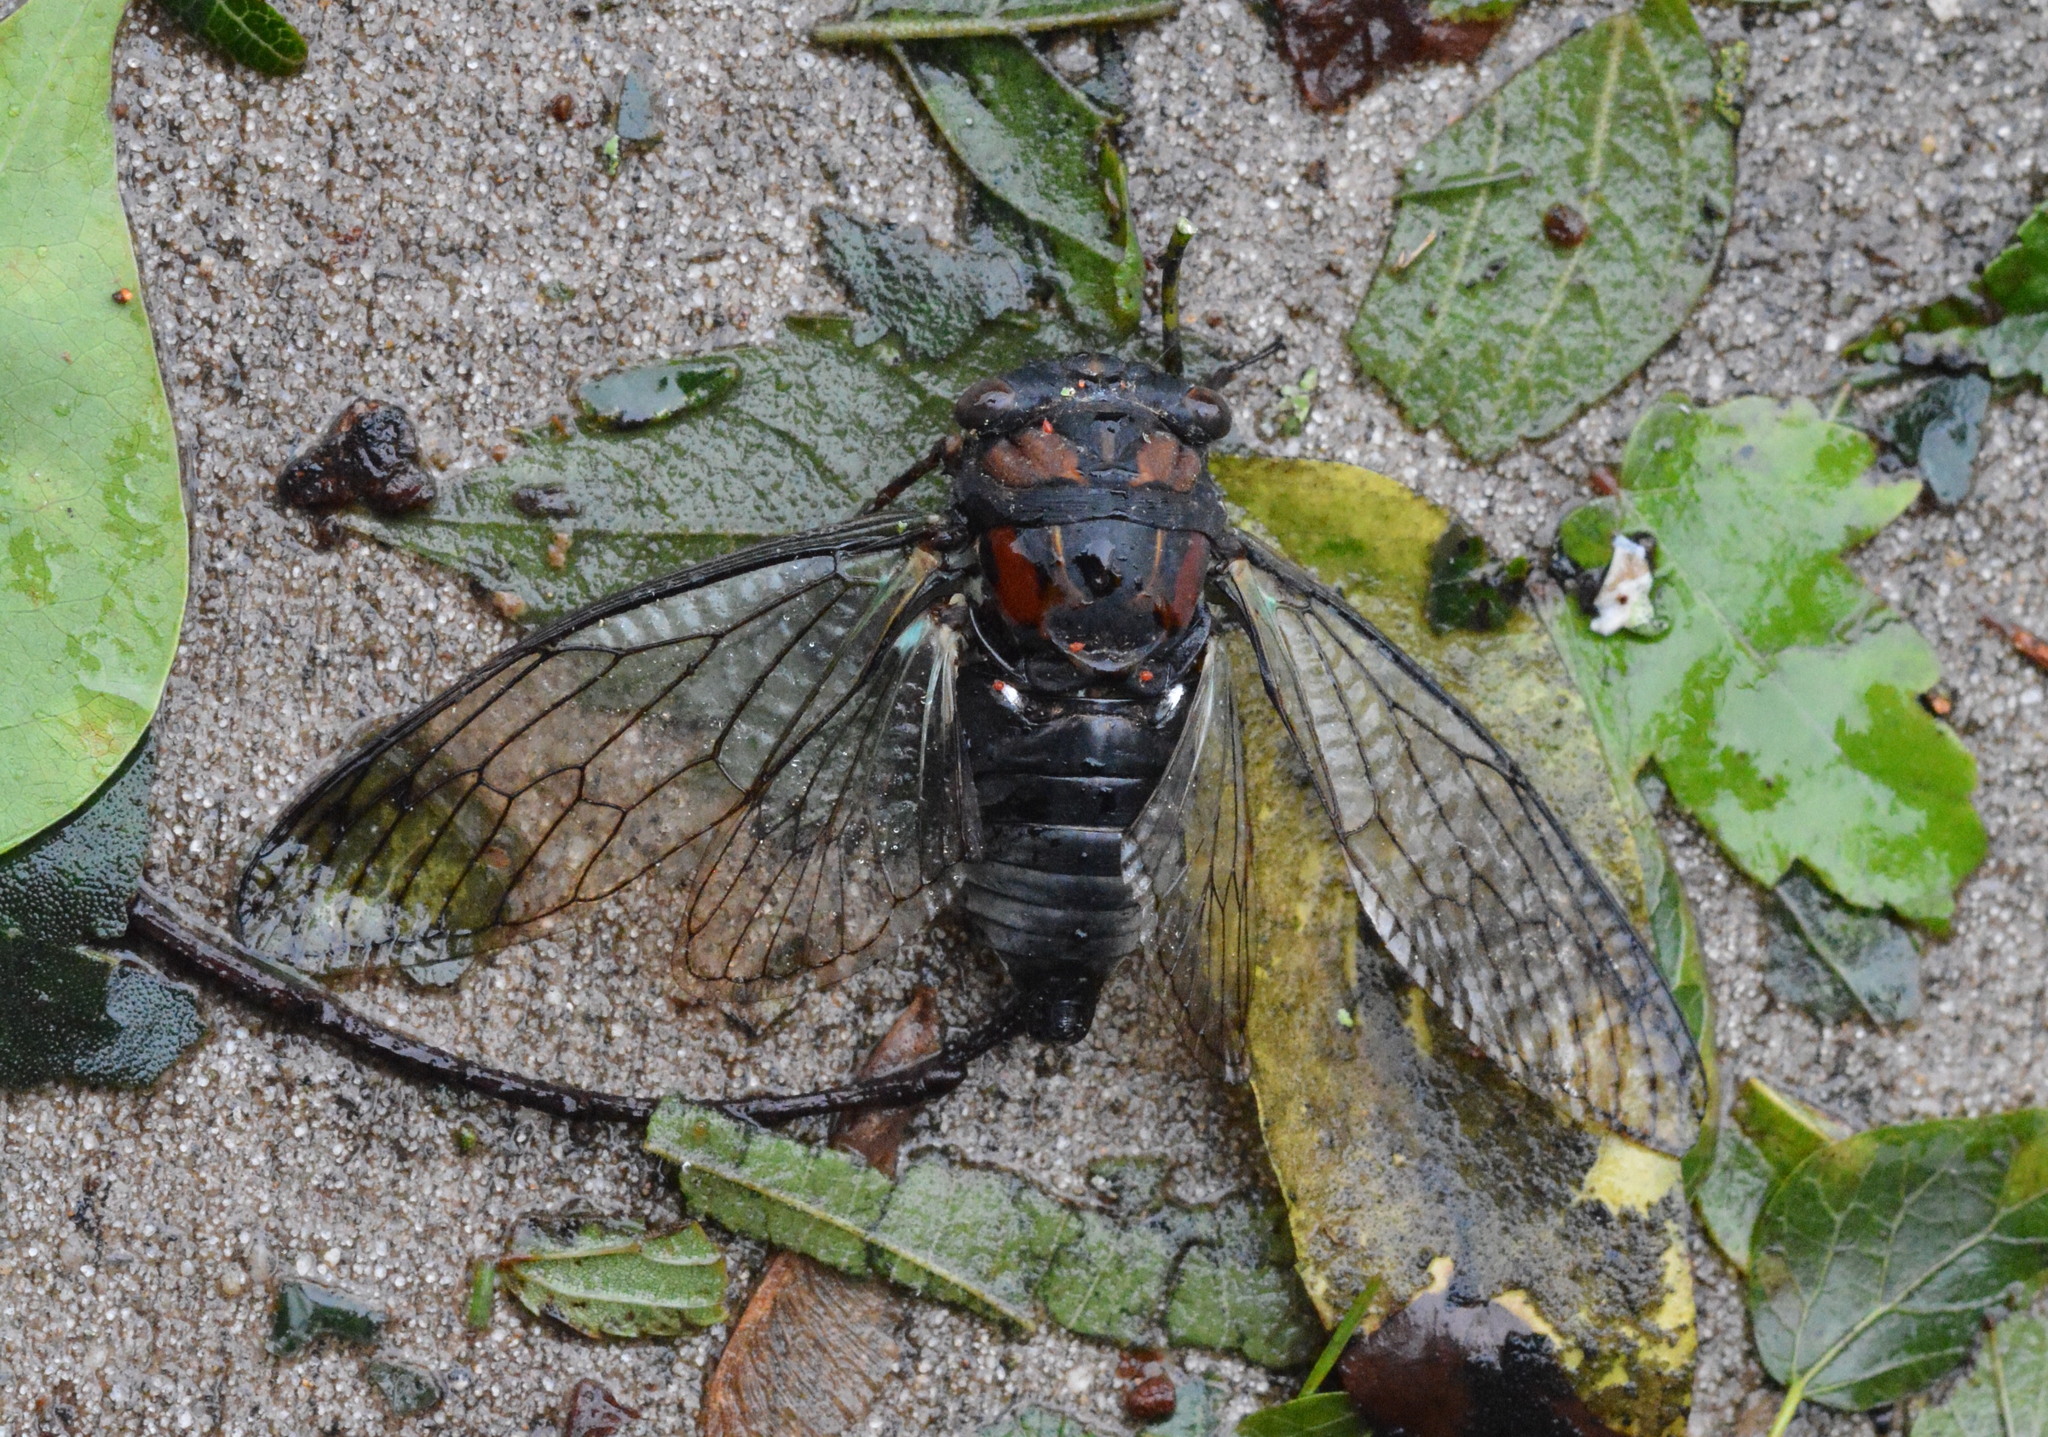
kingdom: Animalia
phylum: Arthropoda
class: Insecta
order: Hemiptera
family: Cicadidae
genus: Neotibicen
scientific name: Neotibicen lyricen
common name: Lyric cicada
